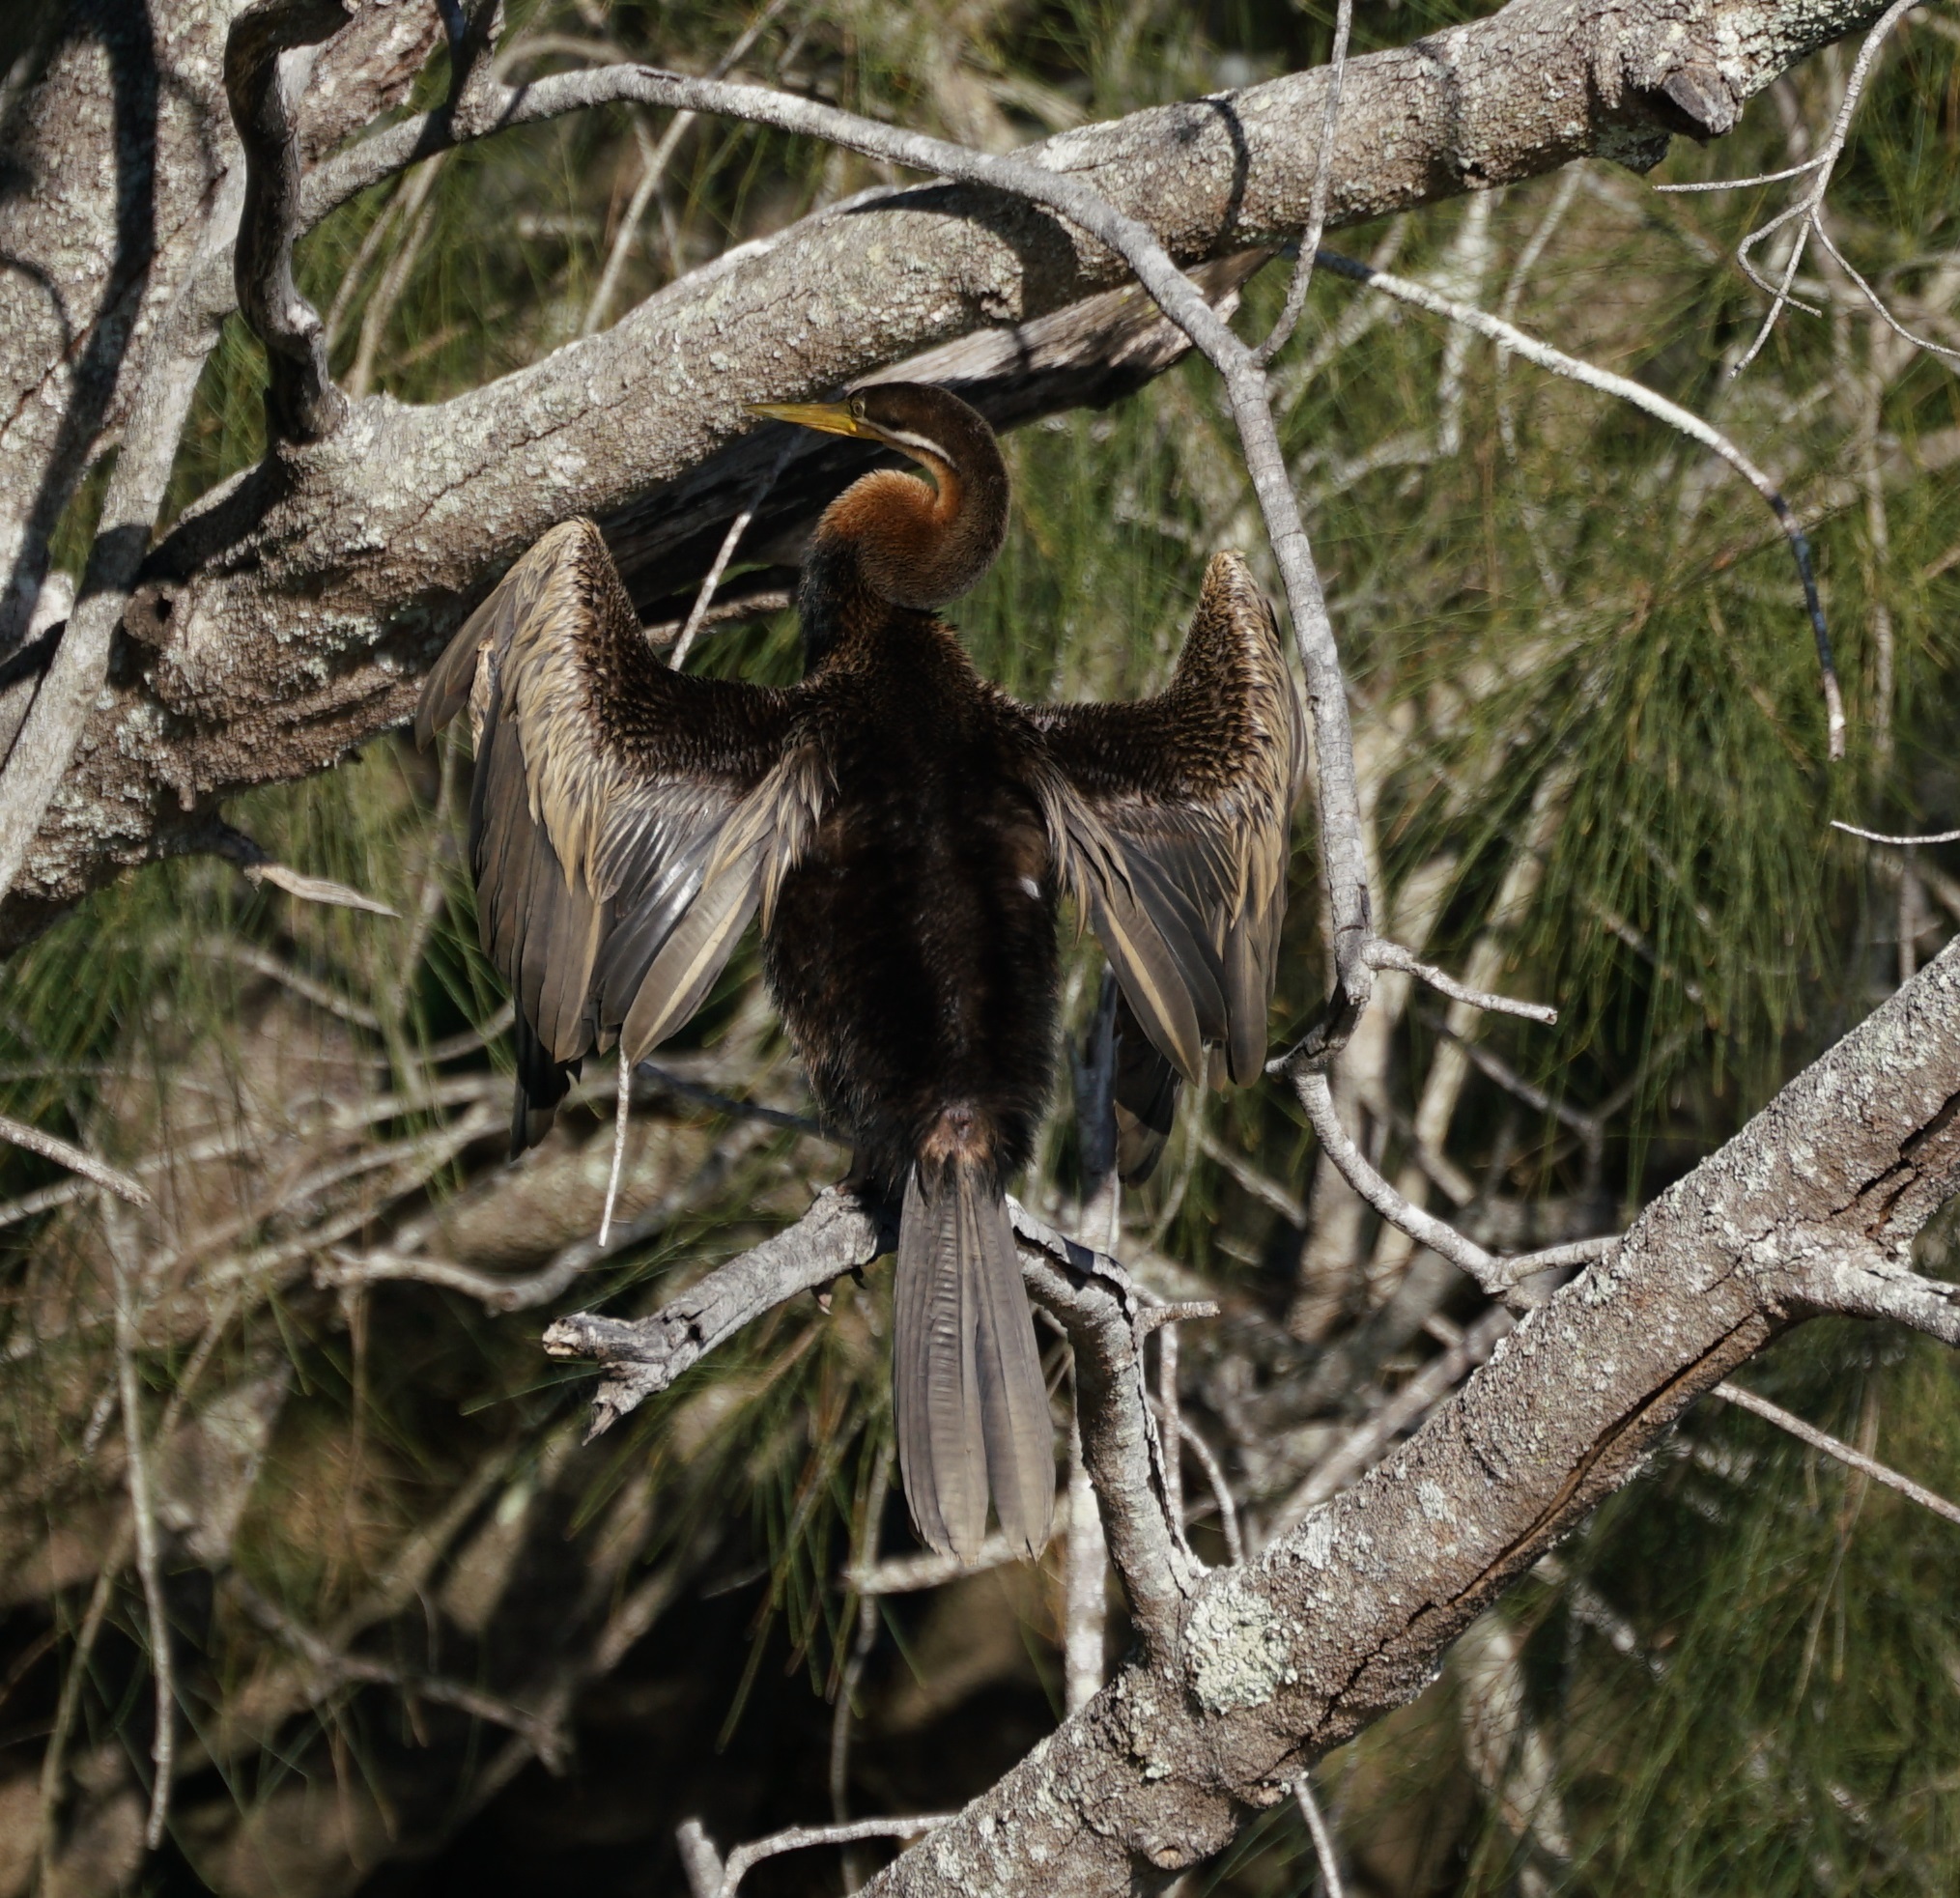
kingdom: Animalia
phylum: Chordata
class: Aves
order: Suliformes
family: Anhingidae
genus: Anhinga
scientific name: Anhinga novaehollandiae
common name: Australasian darter
